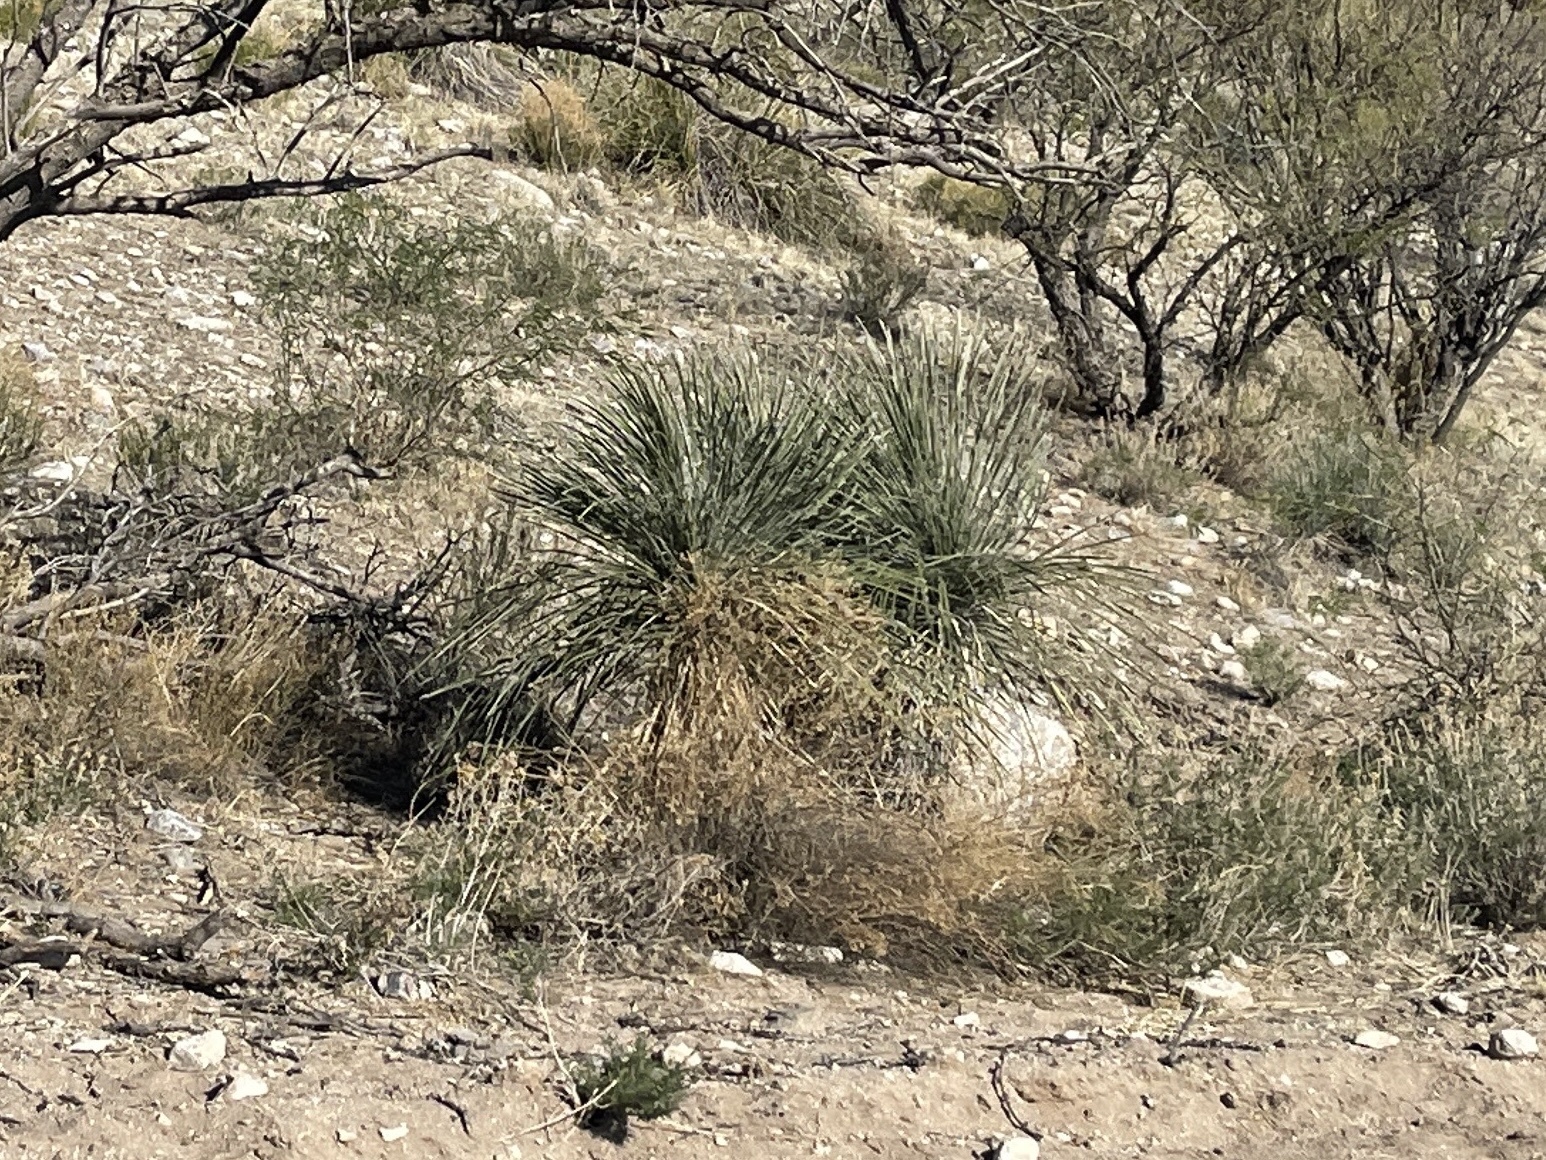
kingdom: Plantae
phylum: Tracheophyta
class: Liliopsida
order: Asparagales
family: Asparagaceae
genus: Yucca
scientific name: Yucca elata
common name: Palmella
